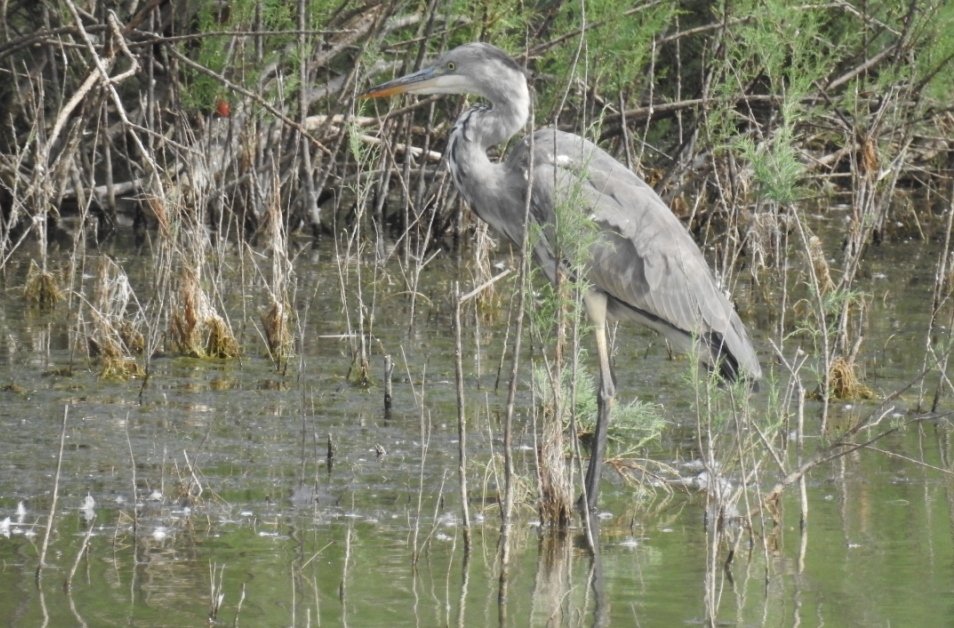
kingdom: Animalia
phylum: Chordata
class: Aves
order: Pelecaniformes
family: Ardeidae
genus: Ardea
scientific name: Ardea cinerea
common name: Grey heron
